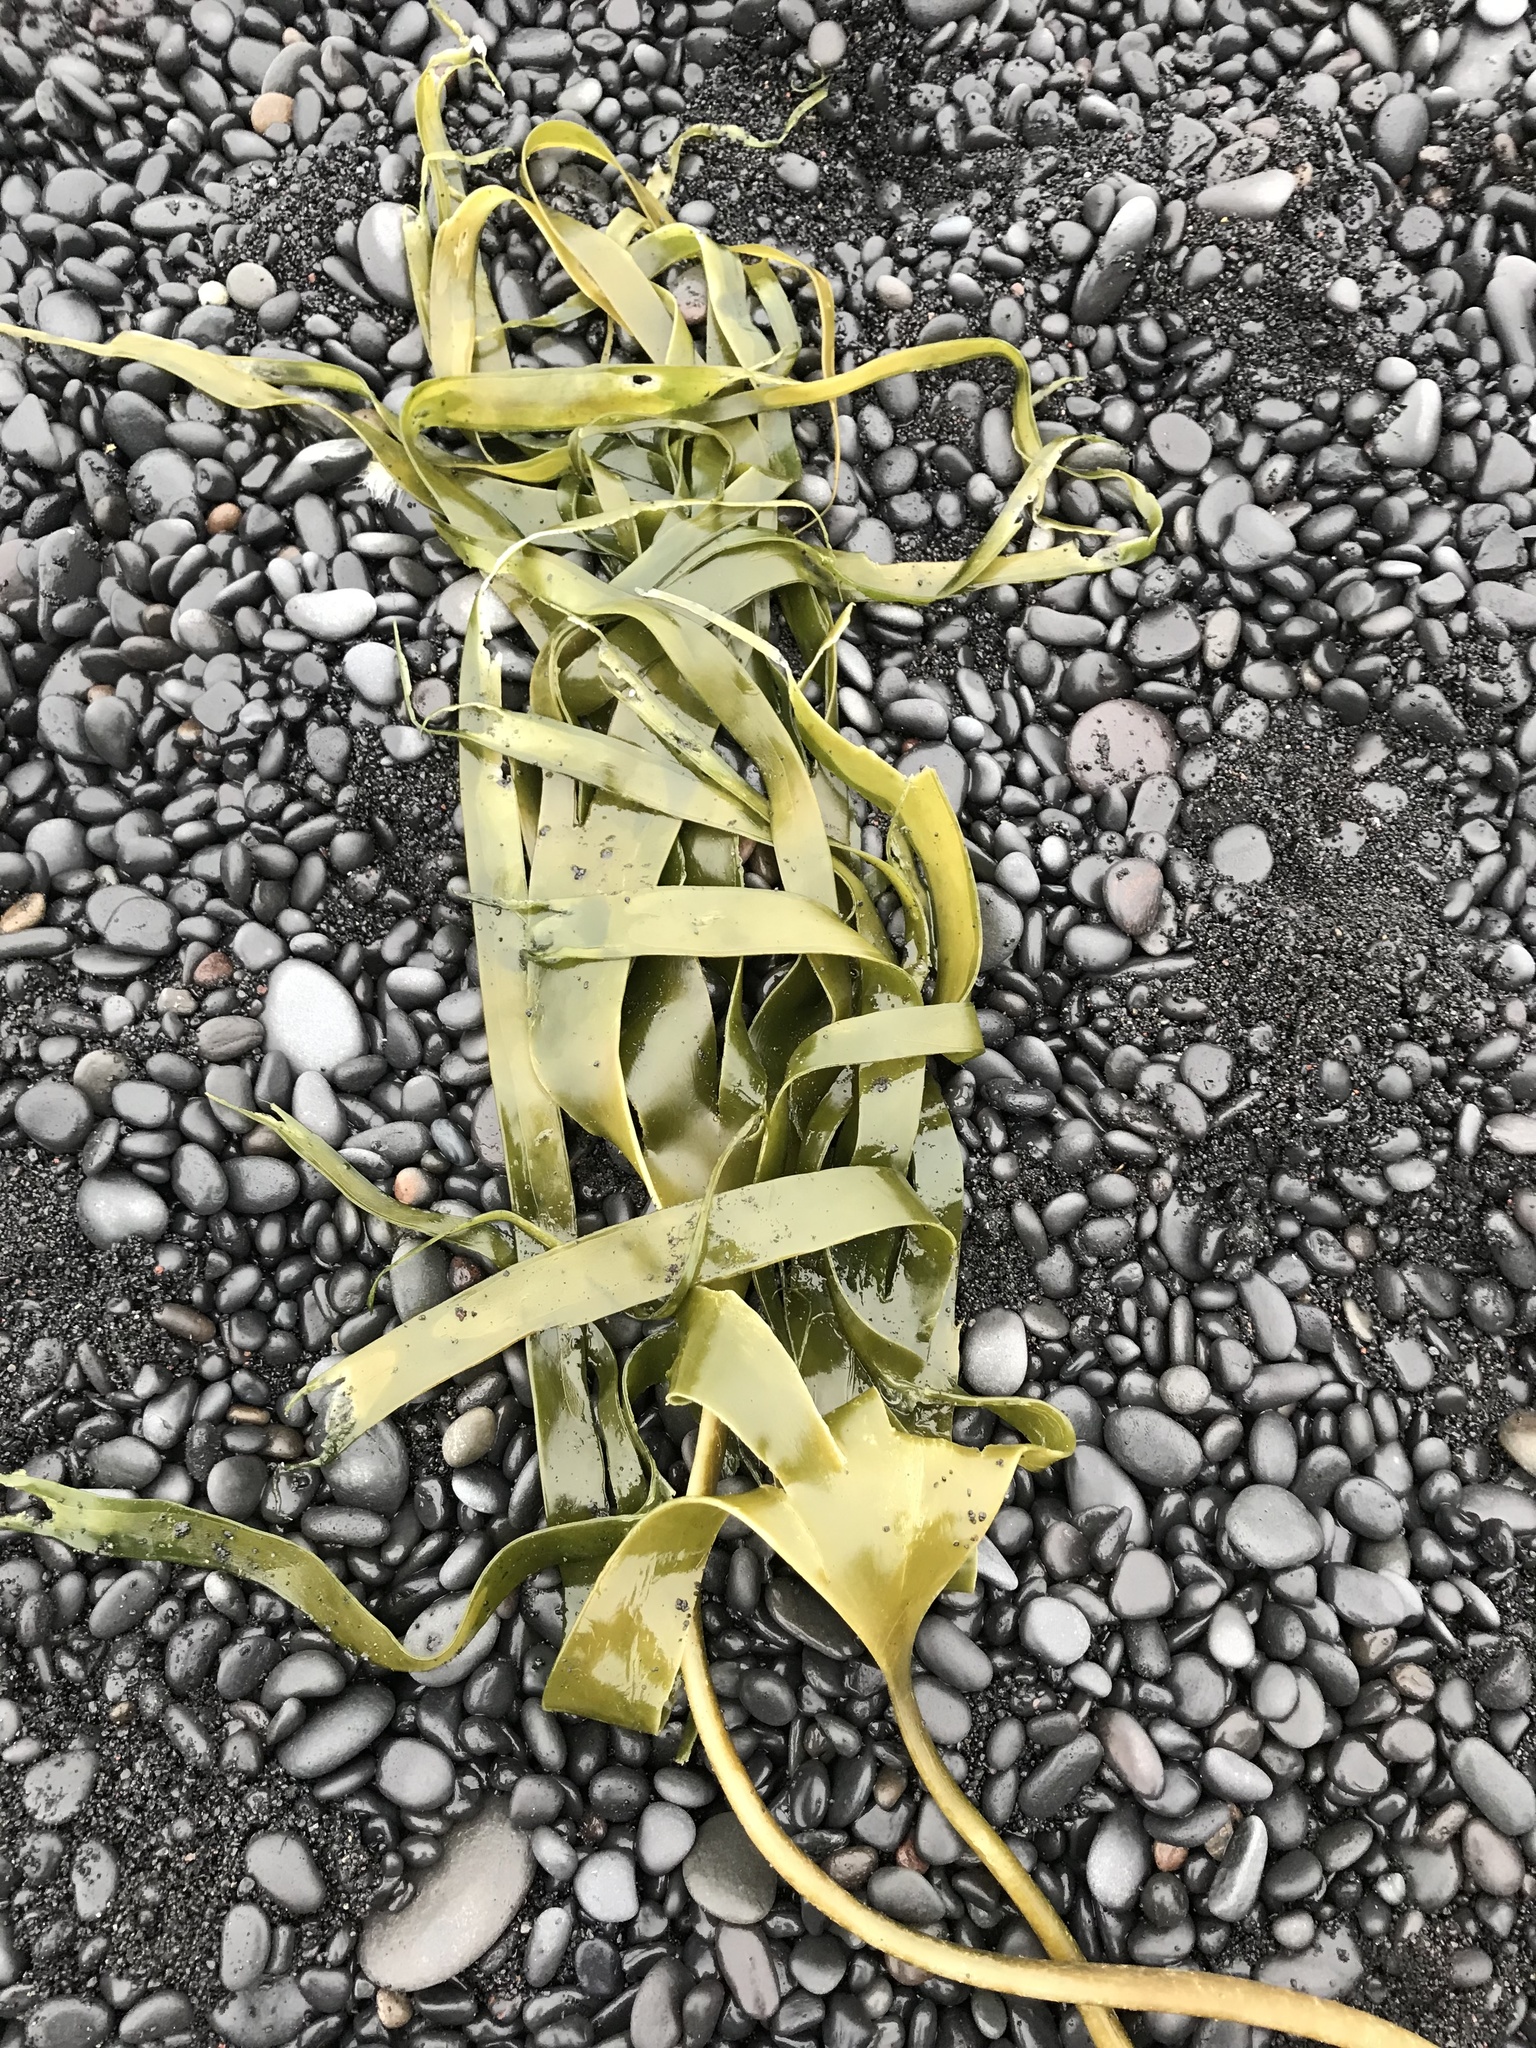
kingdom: Chromista
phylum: Ochrophyta
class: Phaeophyceae
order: Laminariales
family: Laminariaceae
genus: Laminaria
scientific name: Laminaria hyperborea
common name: Cuvie
